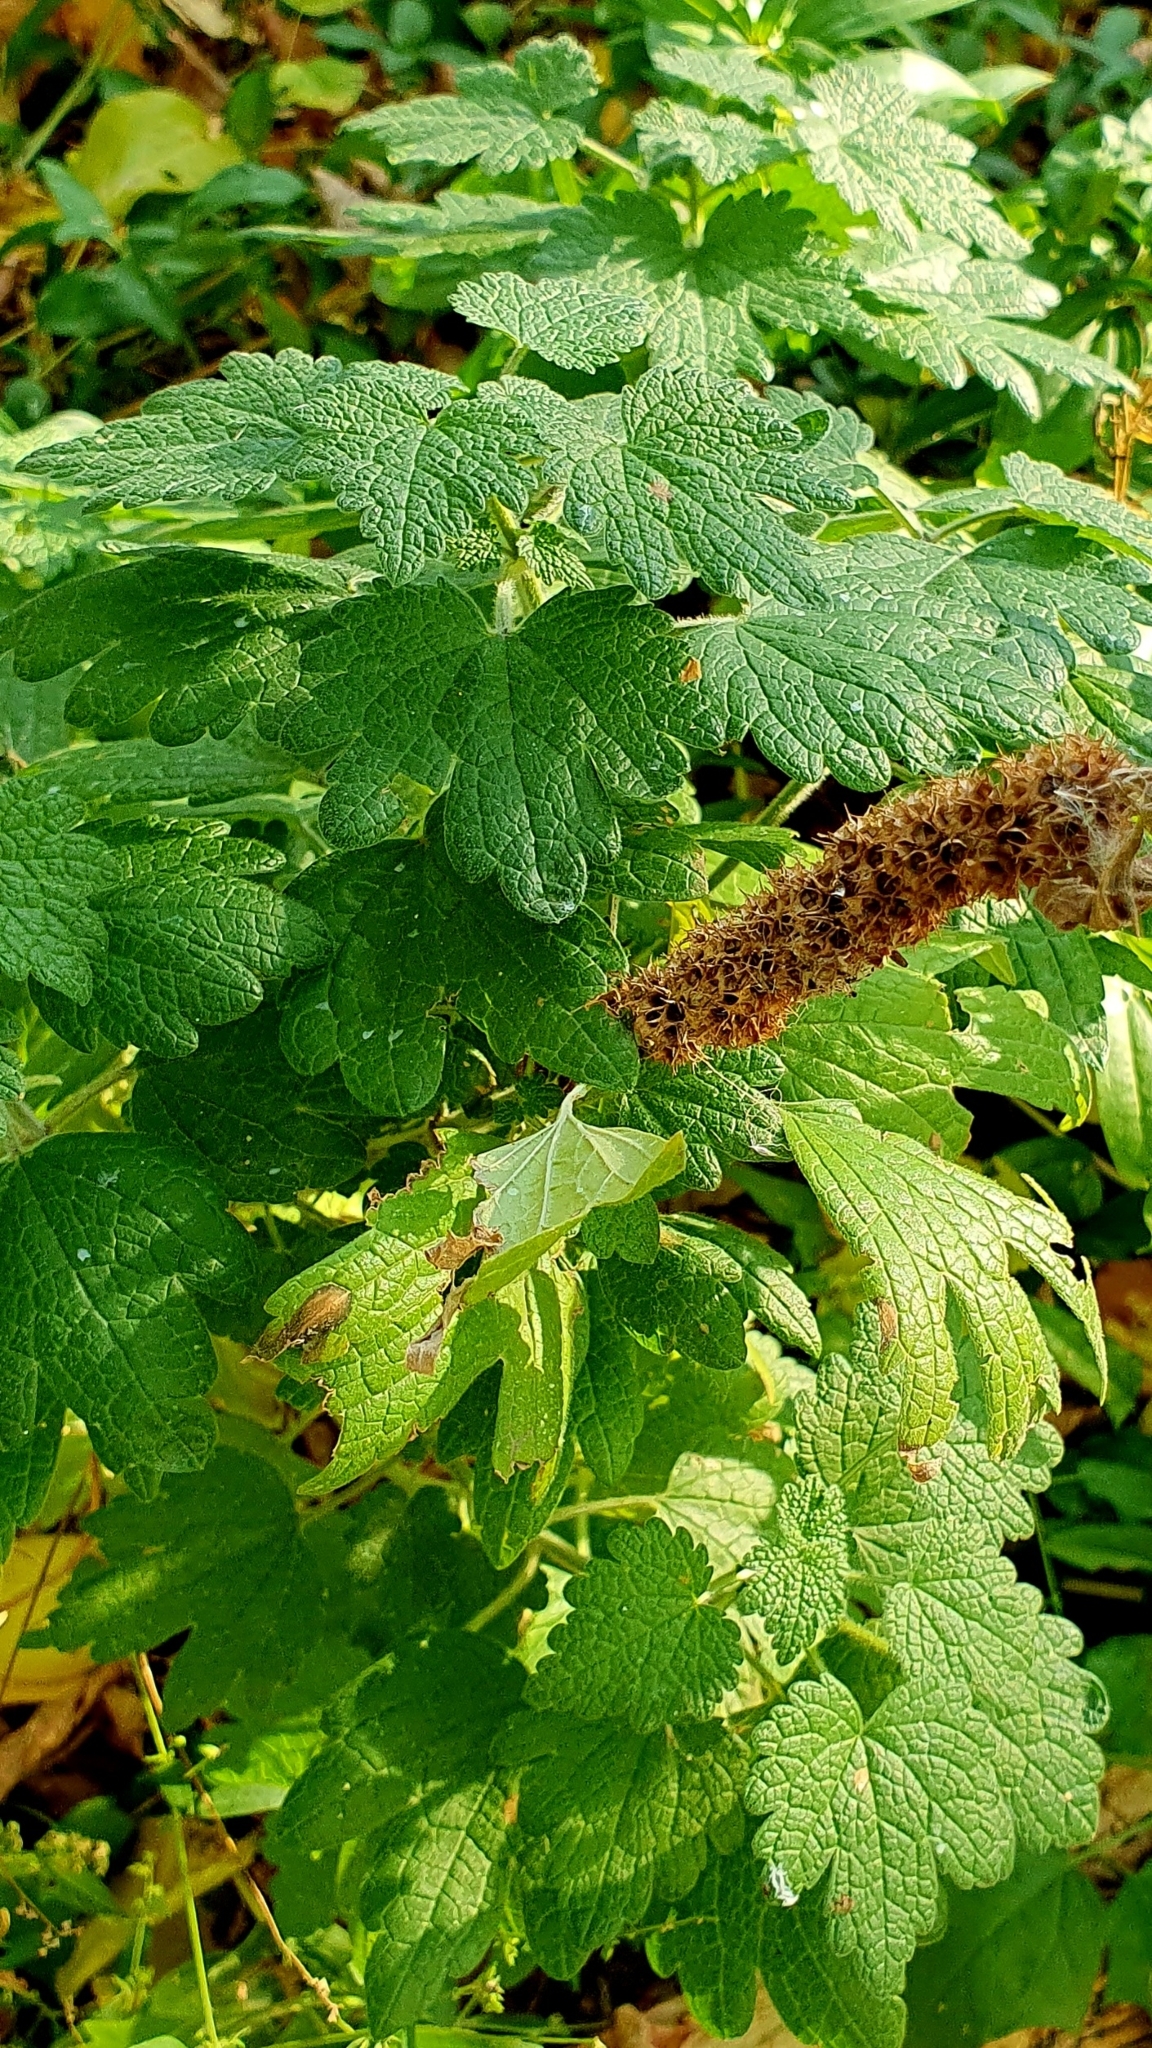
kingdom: Plantae
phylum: Tracheophyta
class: Magnoliopsida
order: Lamiales
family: Lamiaceae
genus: Leonurus
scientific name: Leonurus quinquelobatus
